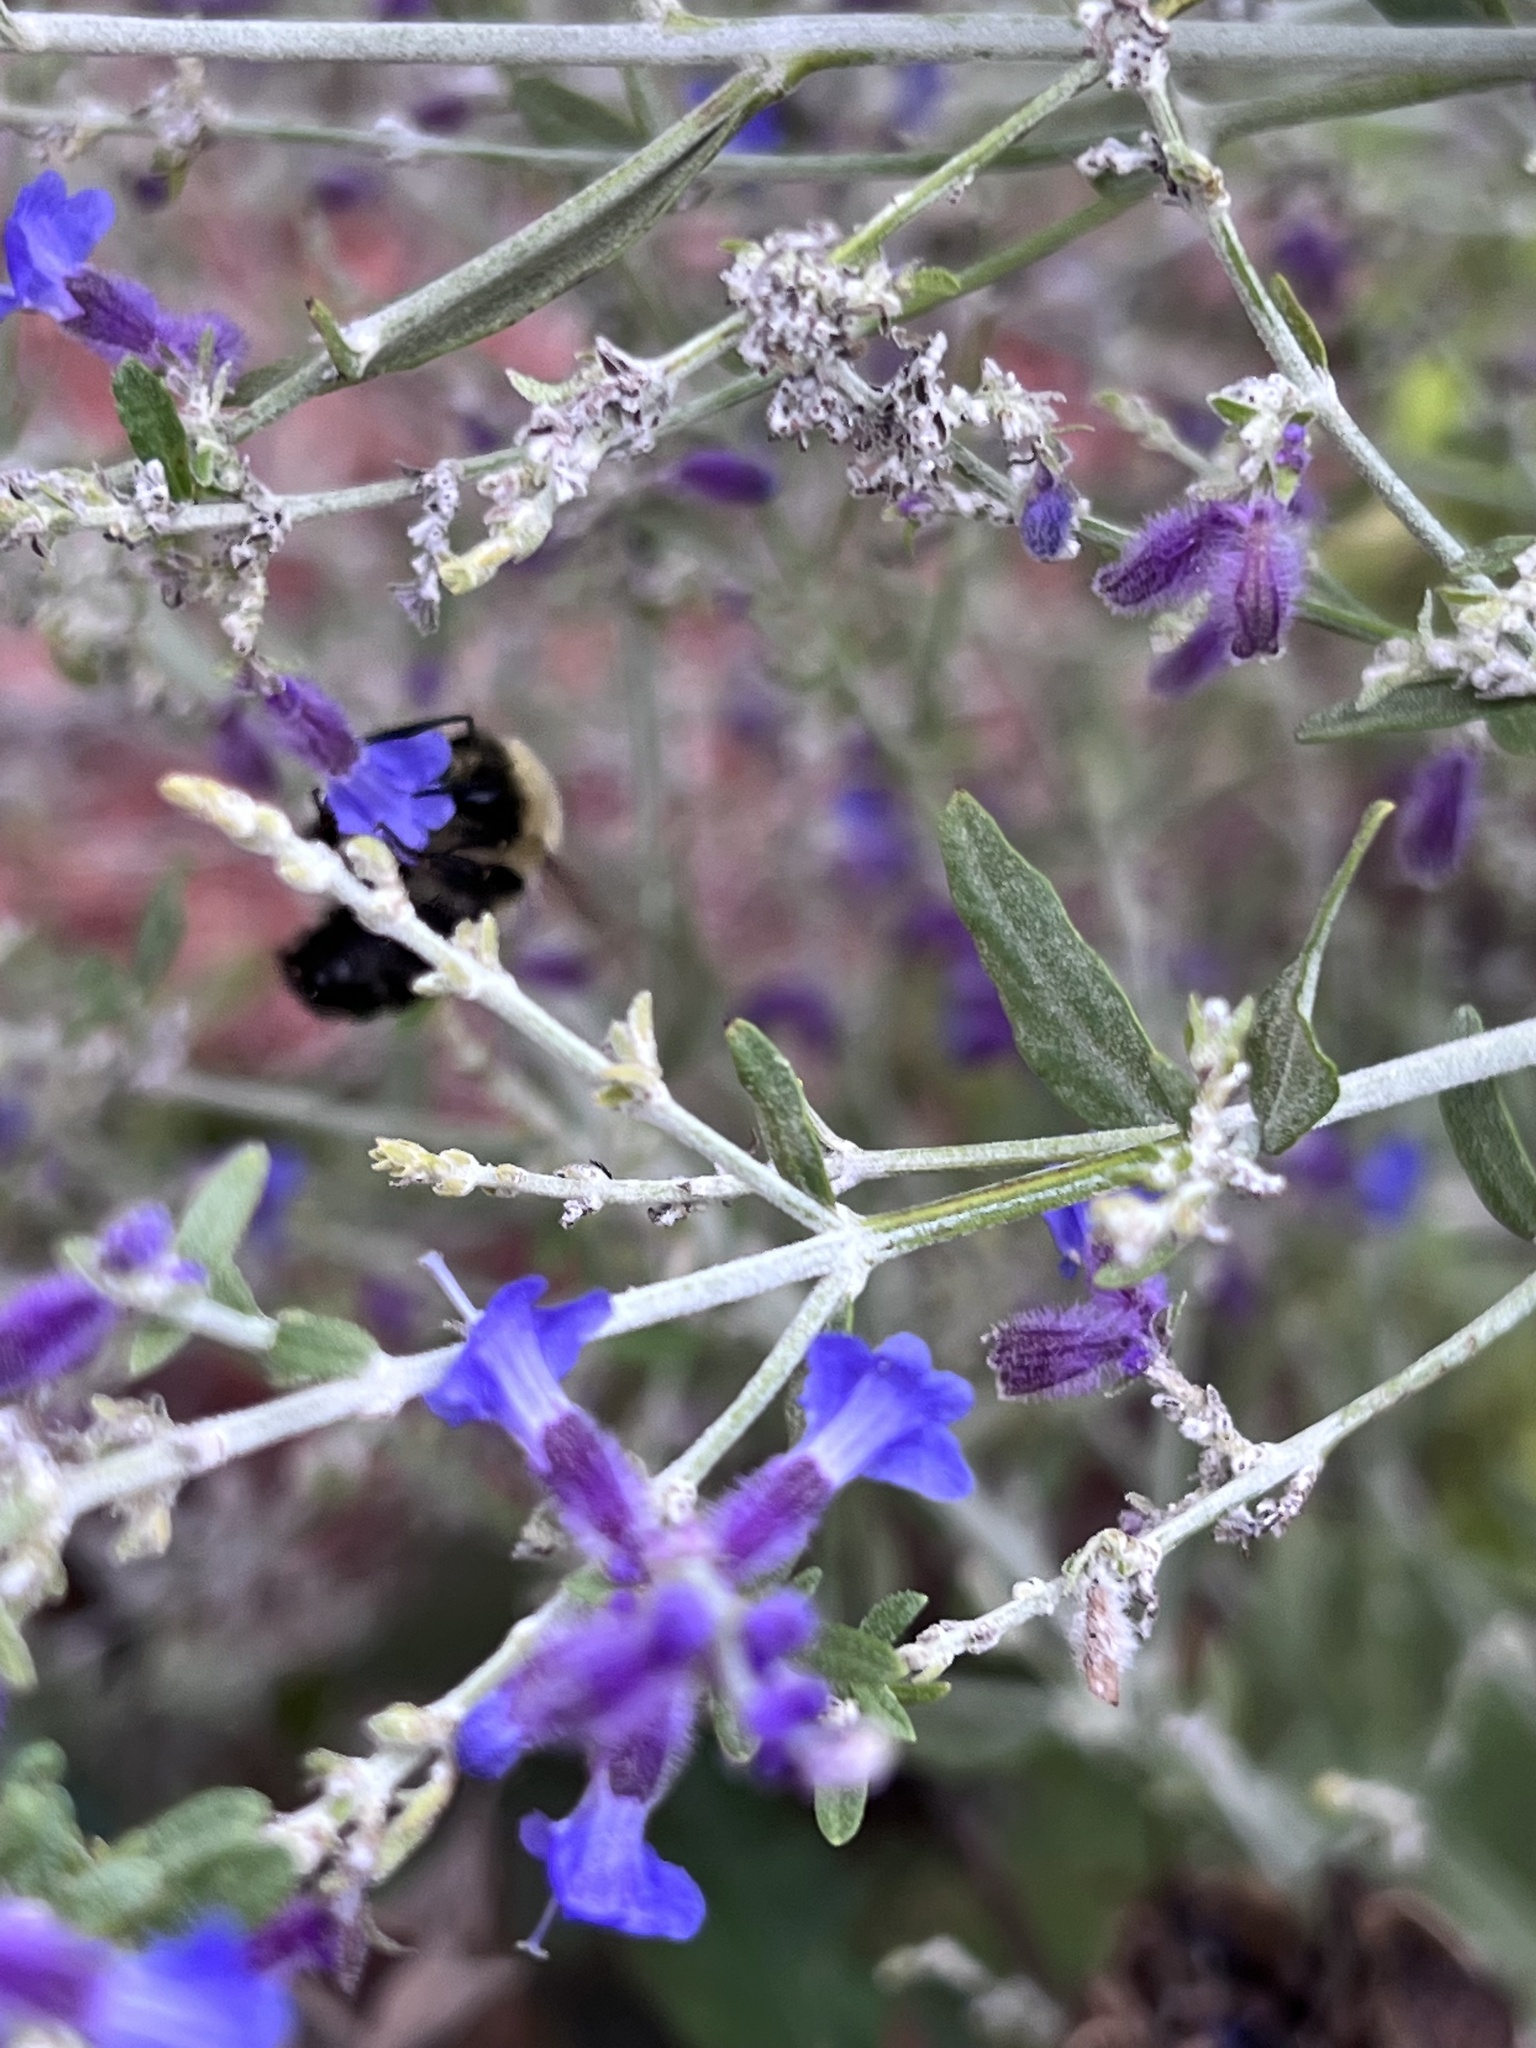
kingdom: Animalia
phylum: Arthropoda
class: Insecta
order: Hymenoptera
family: Apidae
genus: Bombus
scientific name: Bombus impatiens
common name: Common eastern bumble bee
